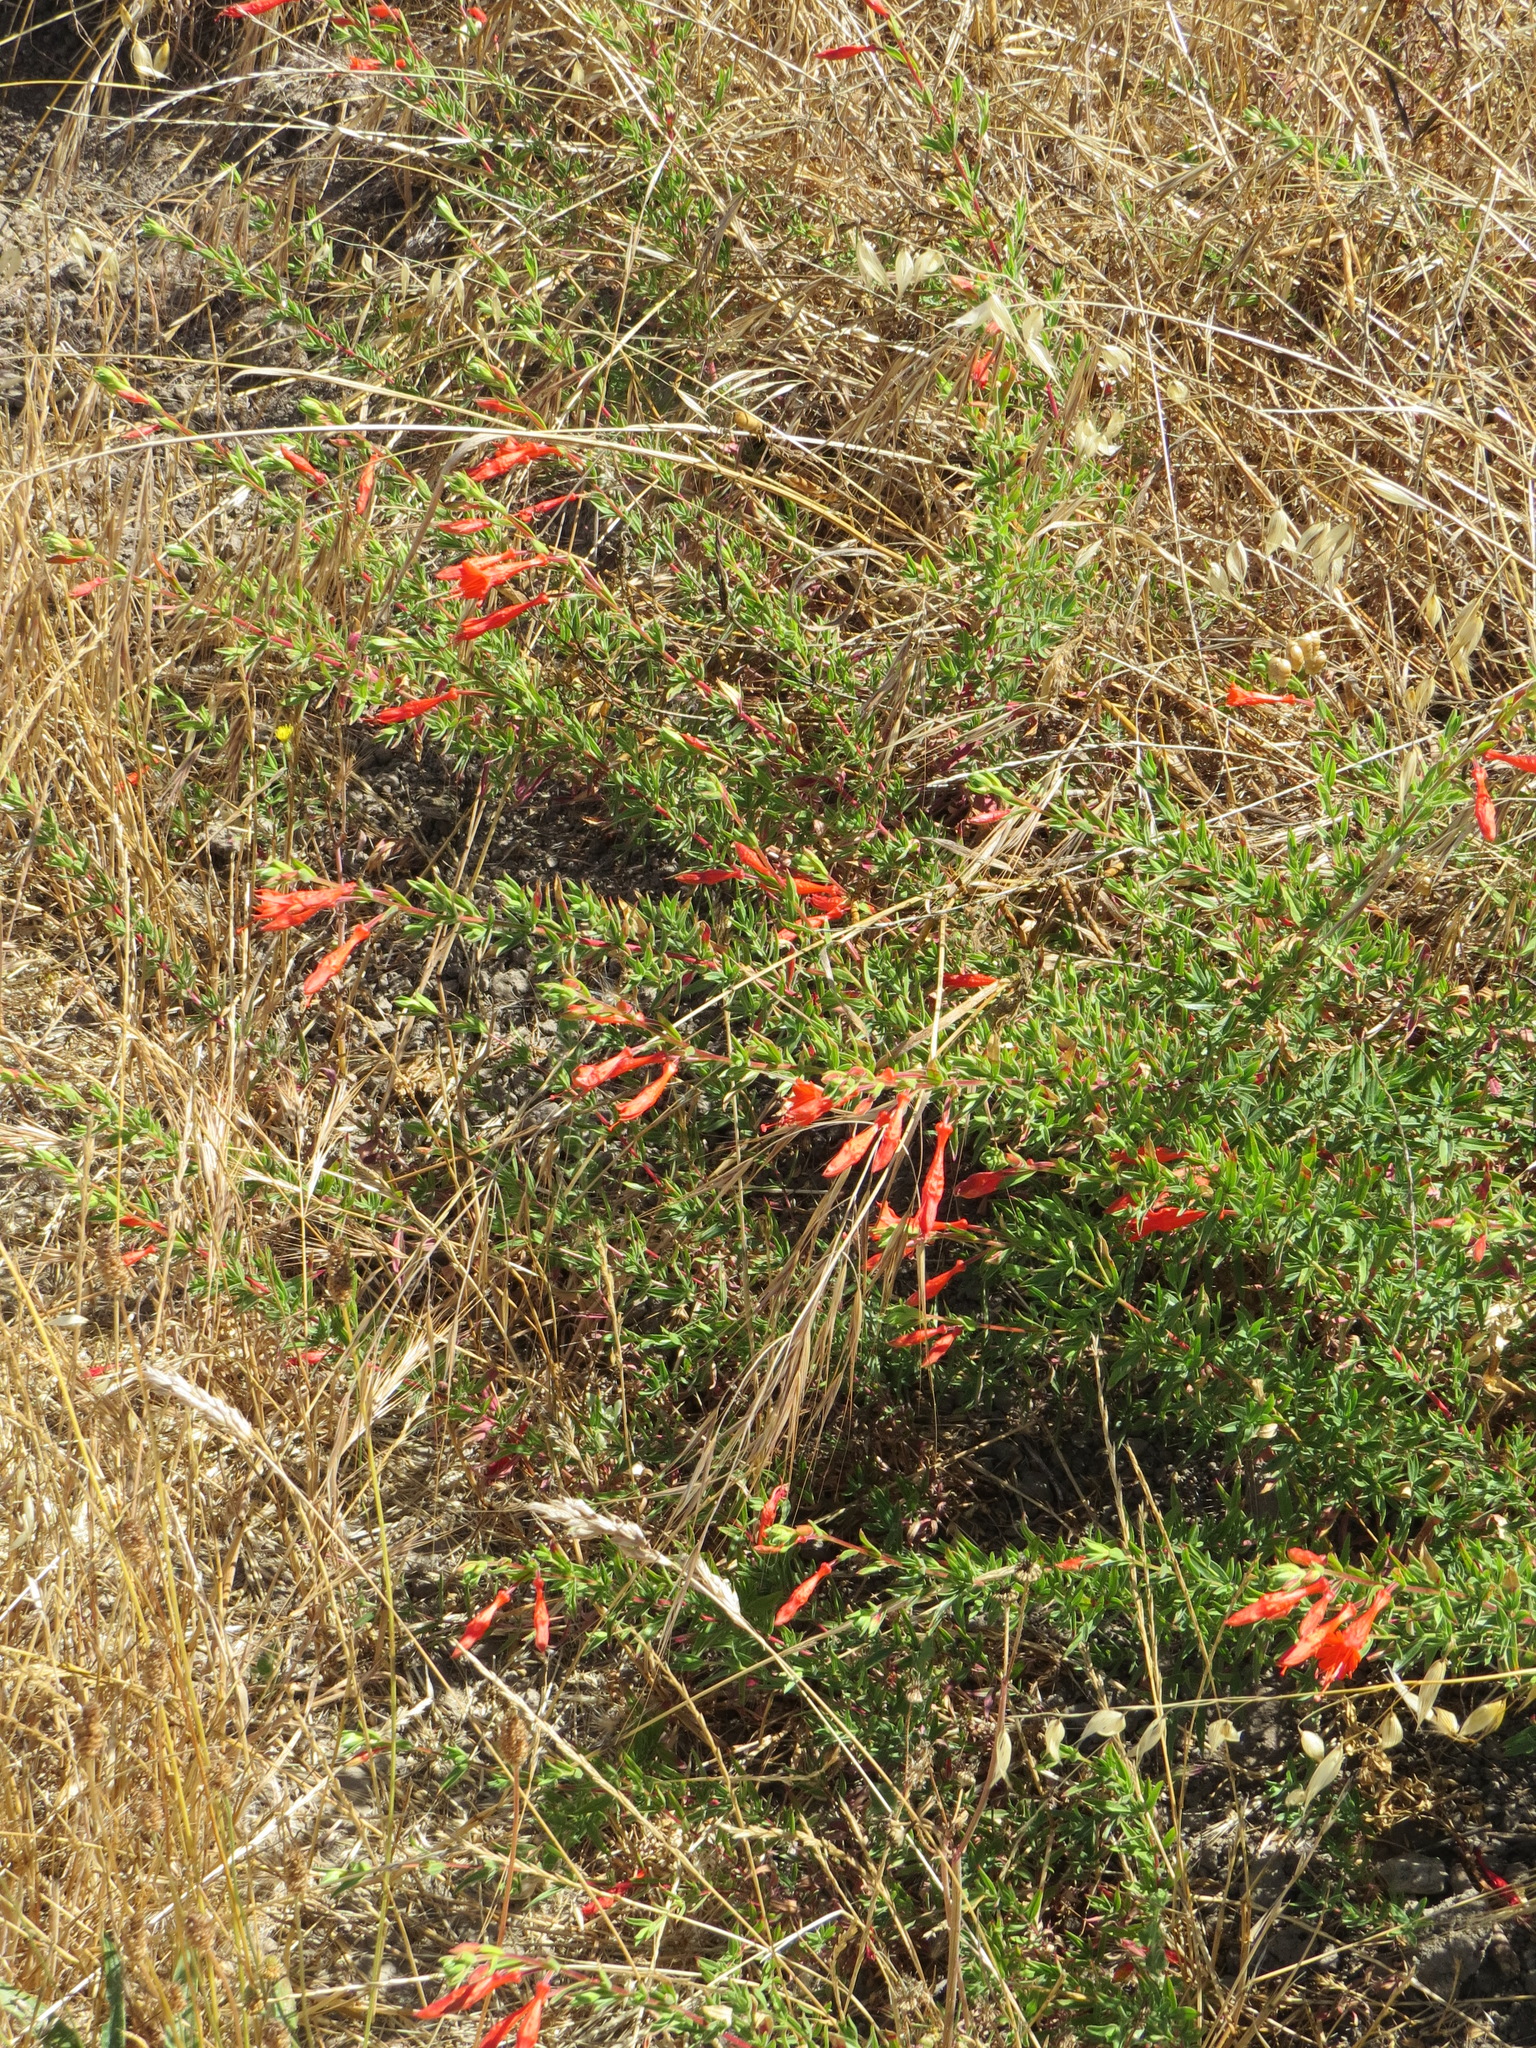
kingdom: Plantae
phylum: Tracheophyta
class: Magnoliopsida
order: Myrtales
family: Onagraceae
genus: Epilobium
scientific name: Epilobium canum
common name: California-fuchsia
